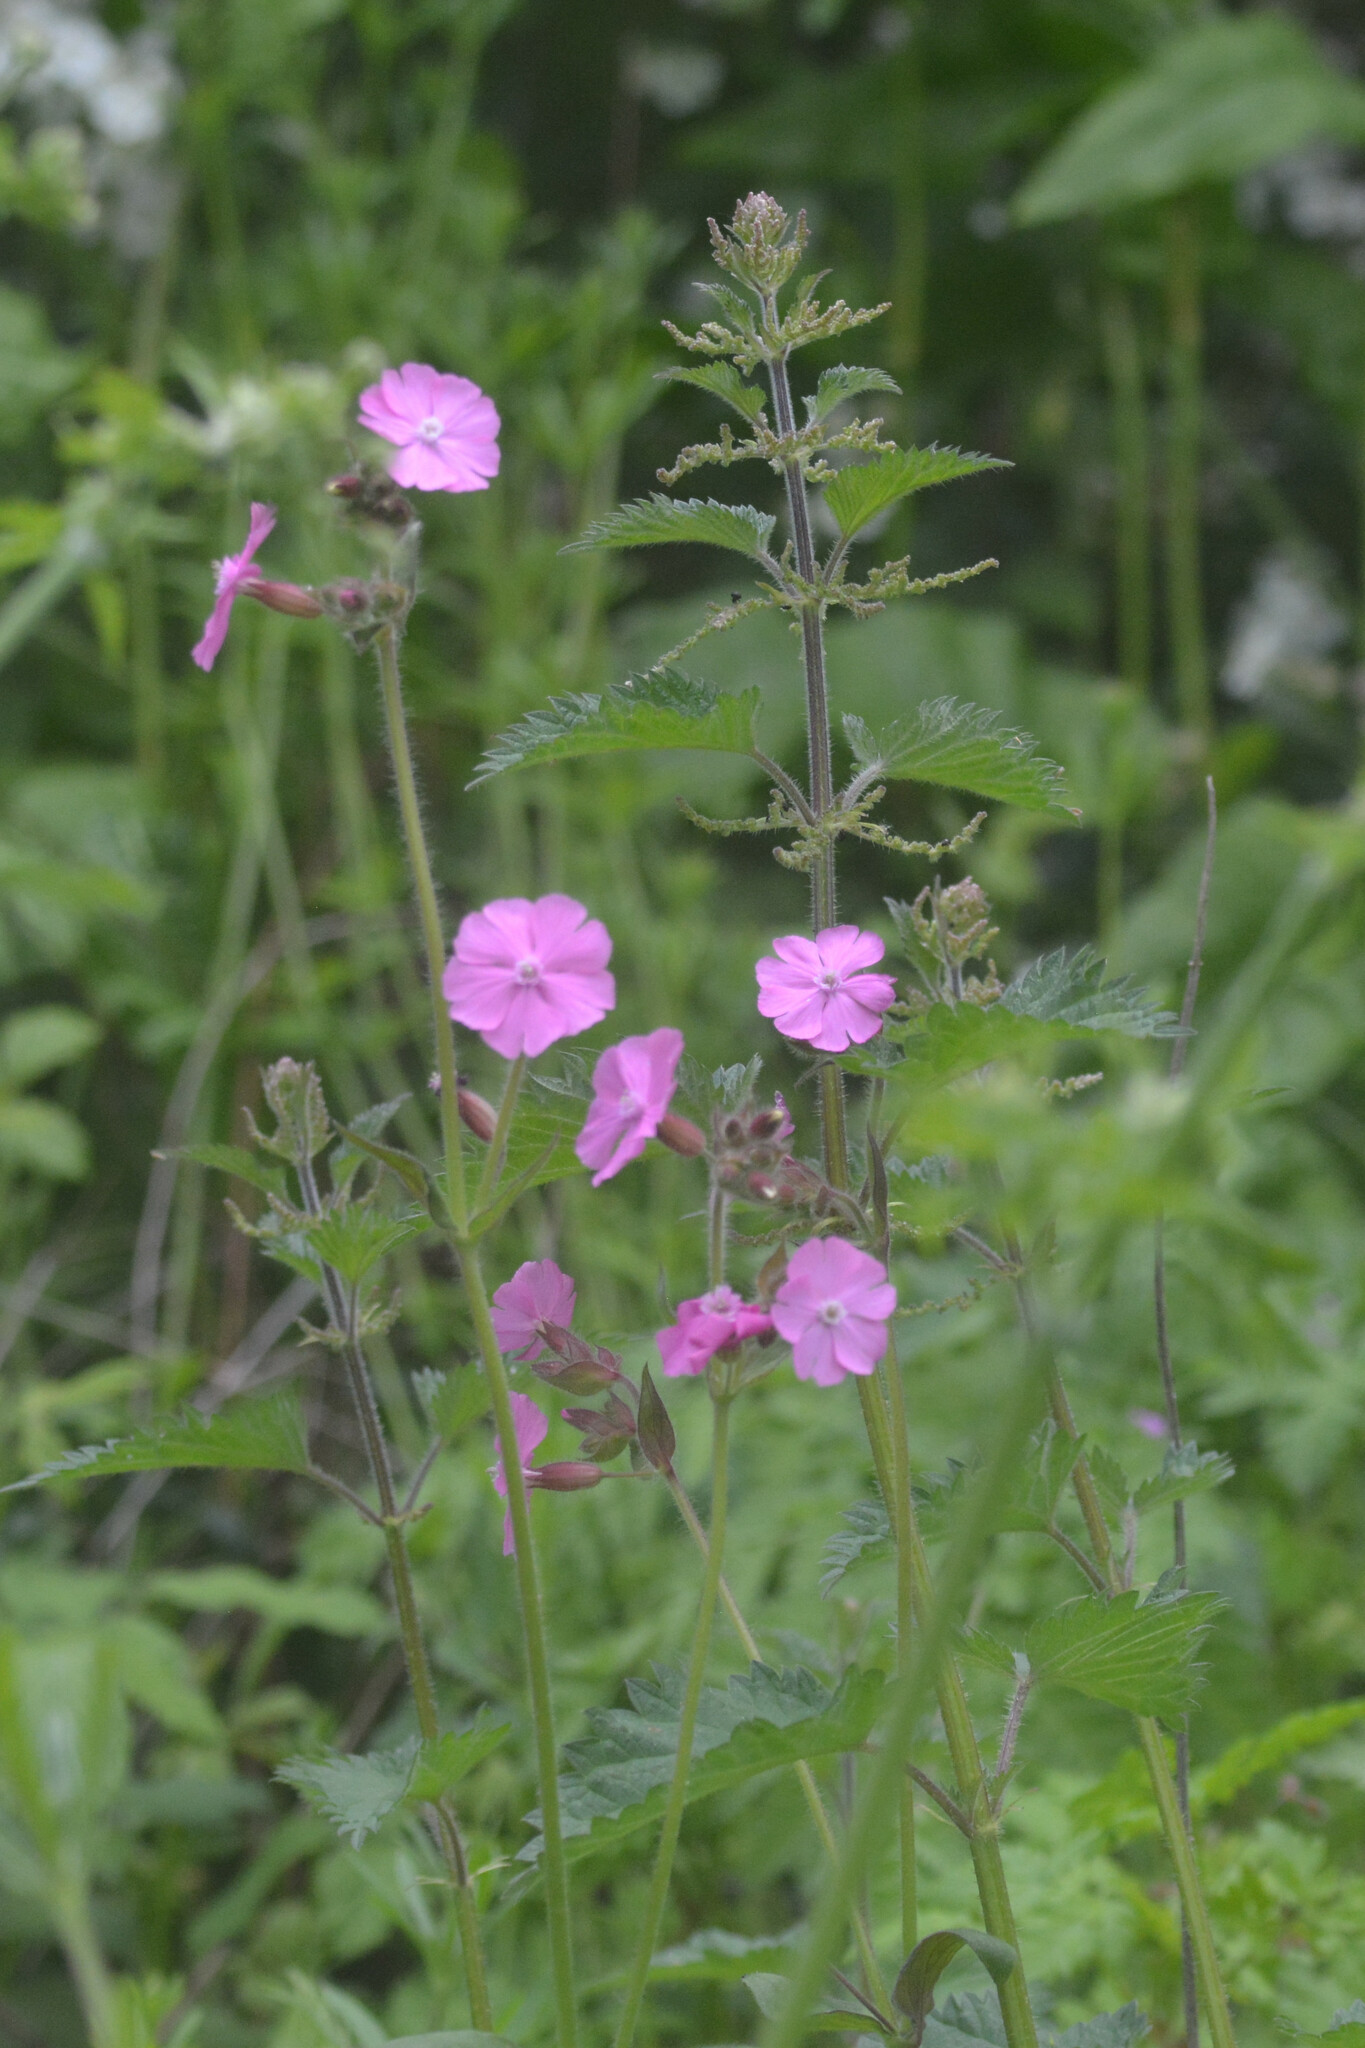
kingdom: Plantae
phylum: Tracheophyta
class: Magnoliopsida
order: Caryophyllales
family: Caryophyllaceae
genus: Silene
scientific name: Silene dioica
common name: Red campion
